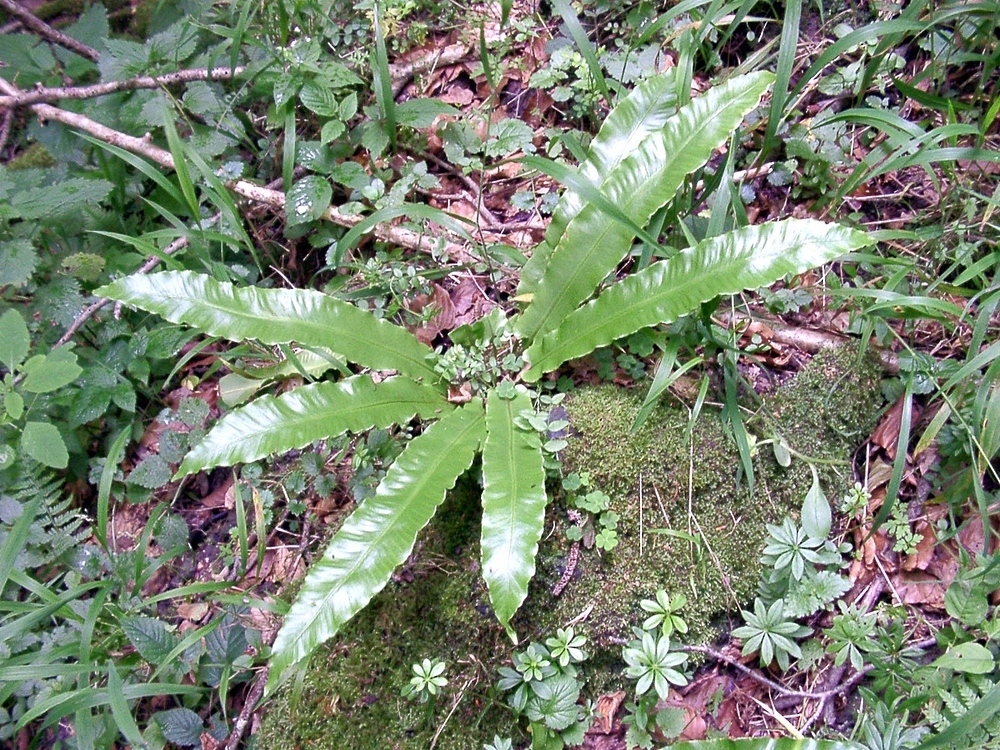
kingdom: Plantae
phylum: Tracheophyta
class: Polypodiopsida
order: Polypodiales
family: Aspleniaceae
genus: Asplenium
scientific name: Asplenium scolopendrium
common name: Hart's-tongue fern
